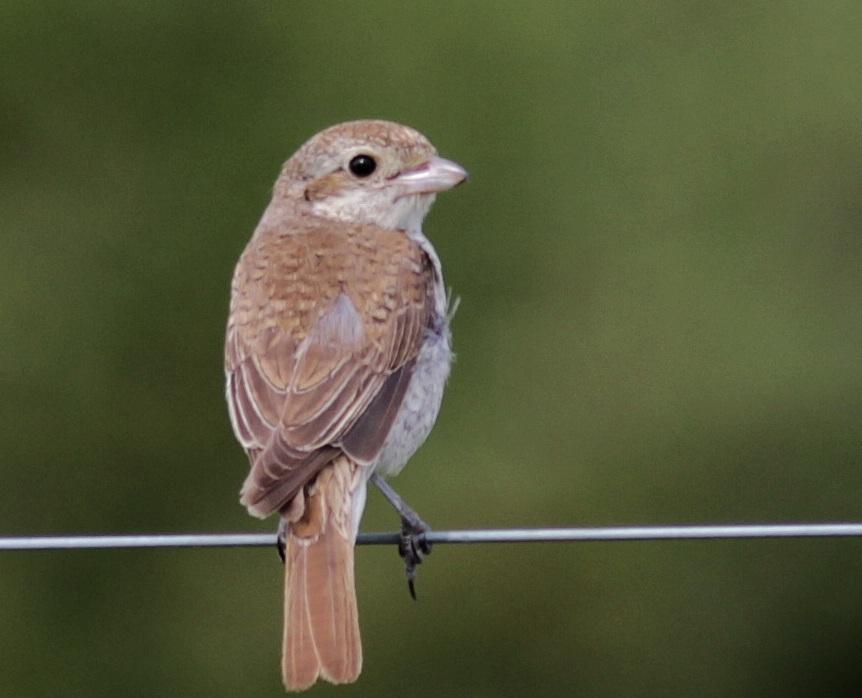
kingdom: Animalia
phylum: Chordata
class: Aves
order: Passeriformes
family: Laniidae
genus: Lanius
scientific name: Lanius collurio
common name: Red-backed shrike
